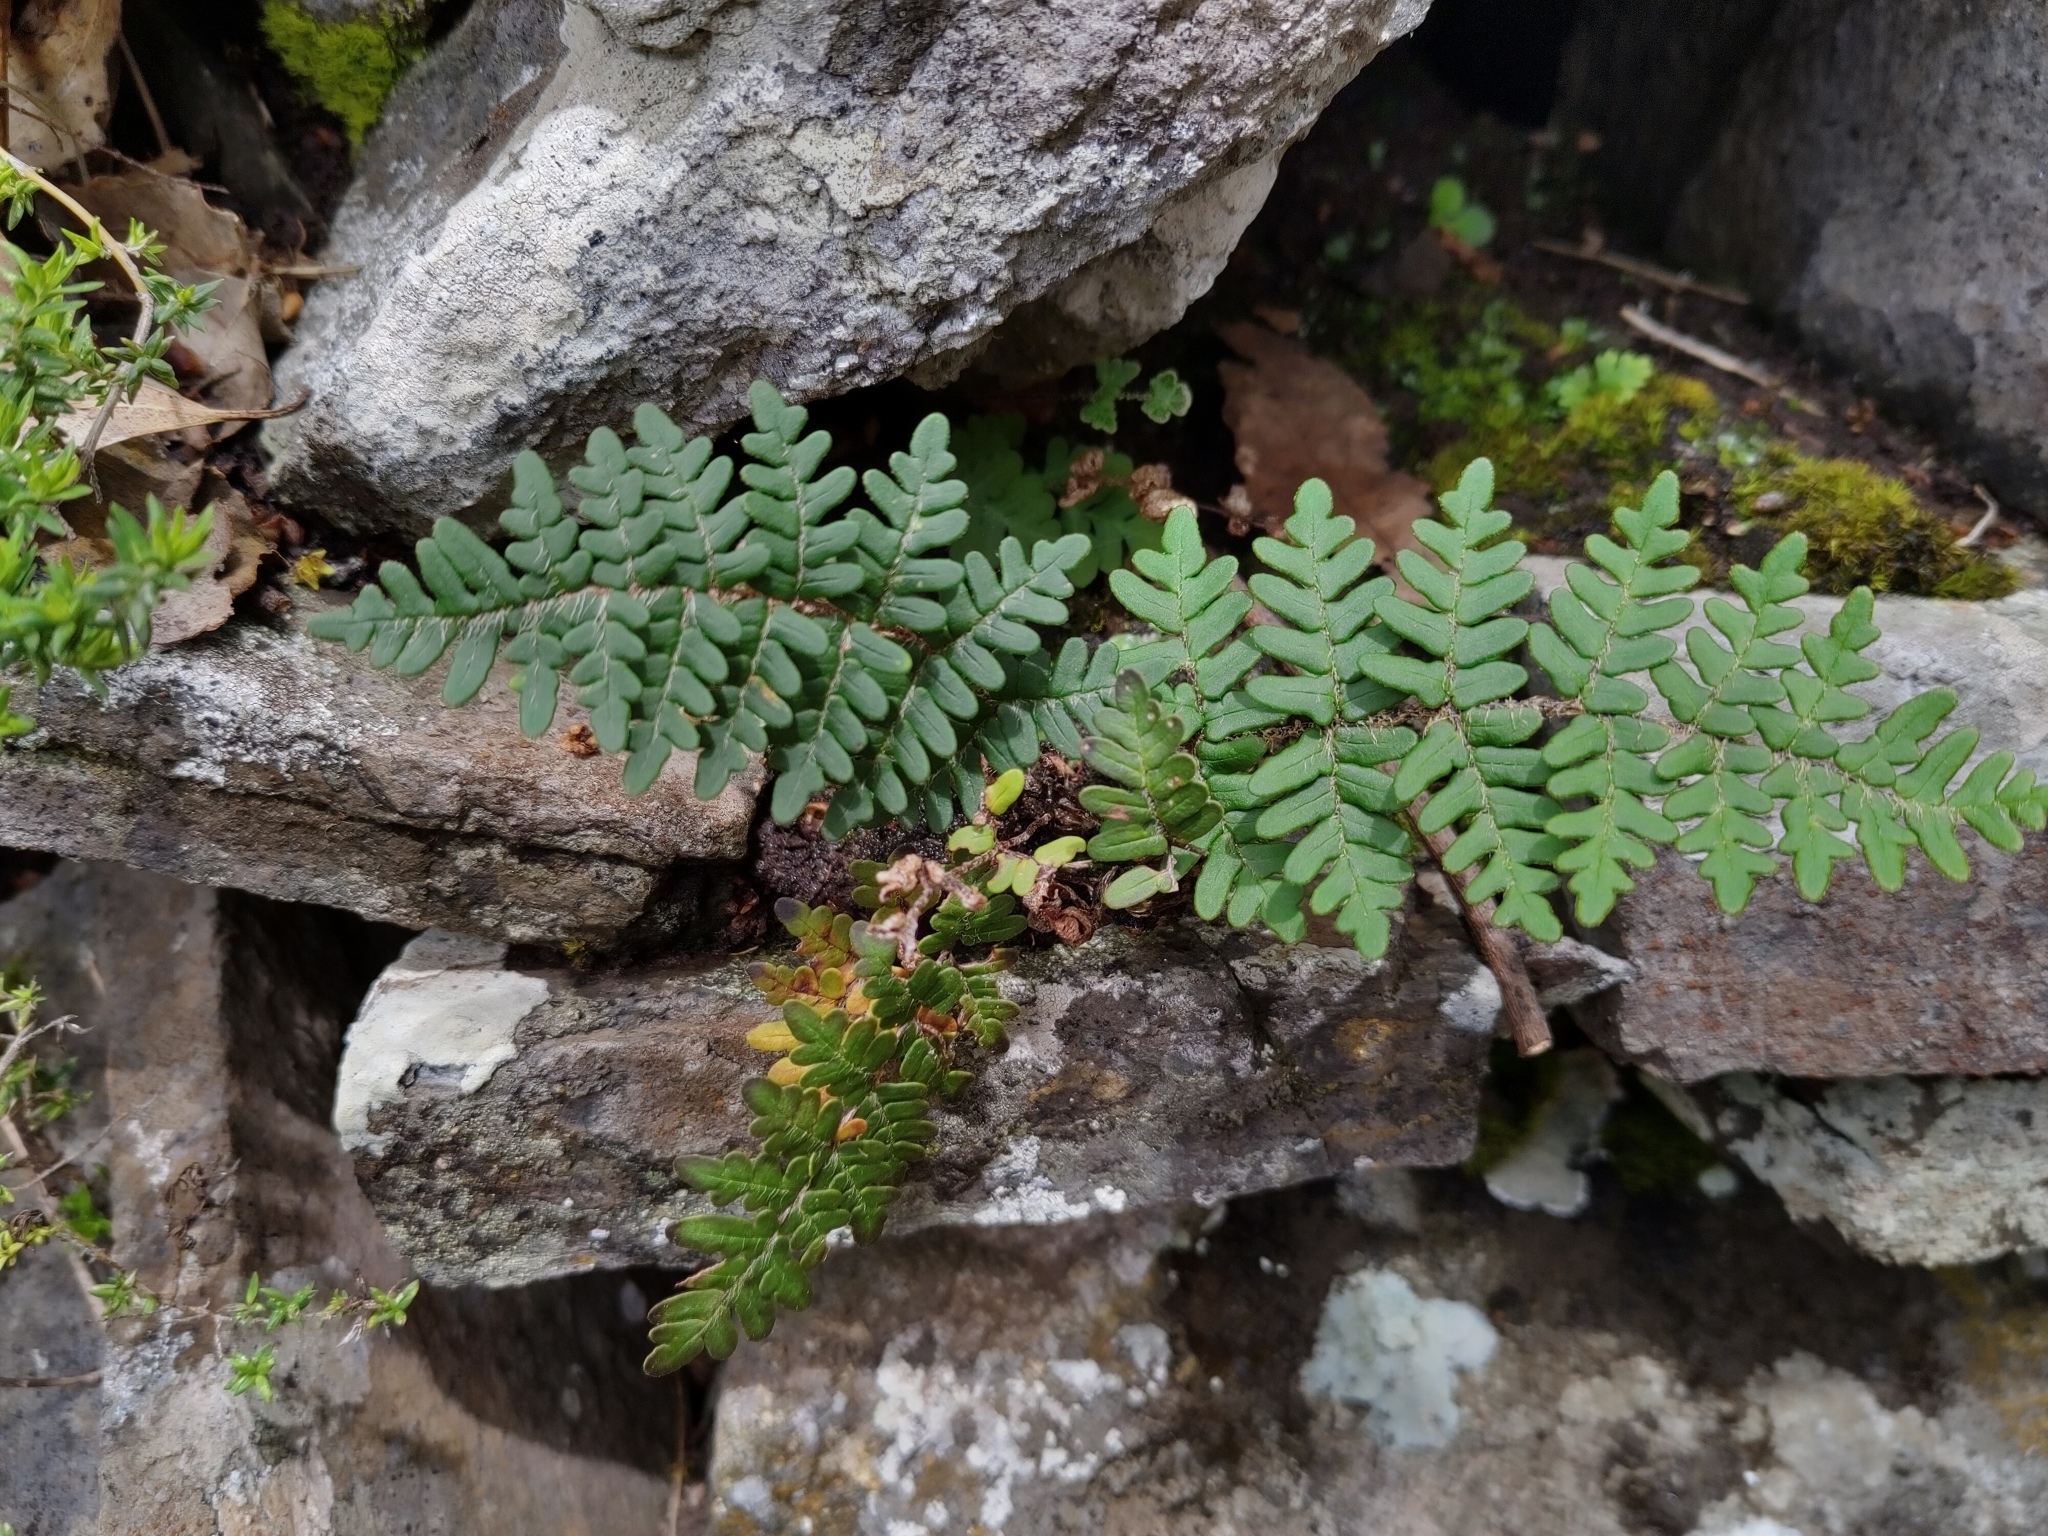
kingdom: Plantae
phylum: Tracheophyta
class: Polypodiopsida
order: Polypodiales
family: Pteridaceae
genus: Paragymnopteris
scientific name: Paragymnopteris marantae
